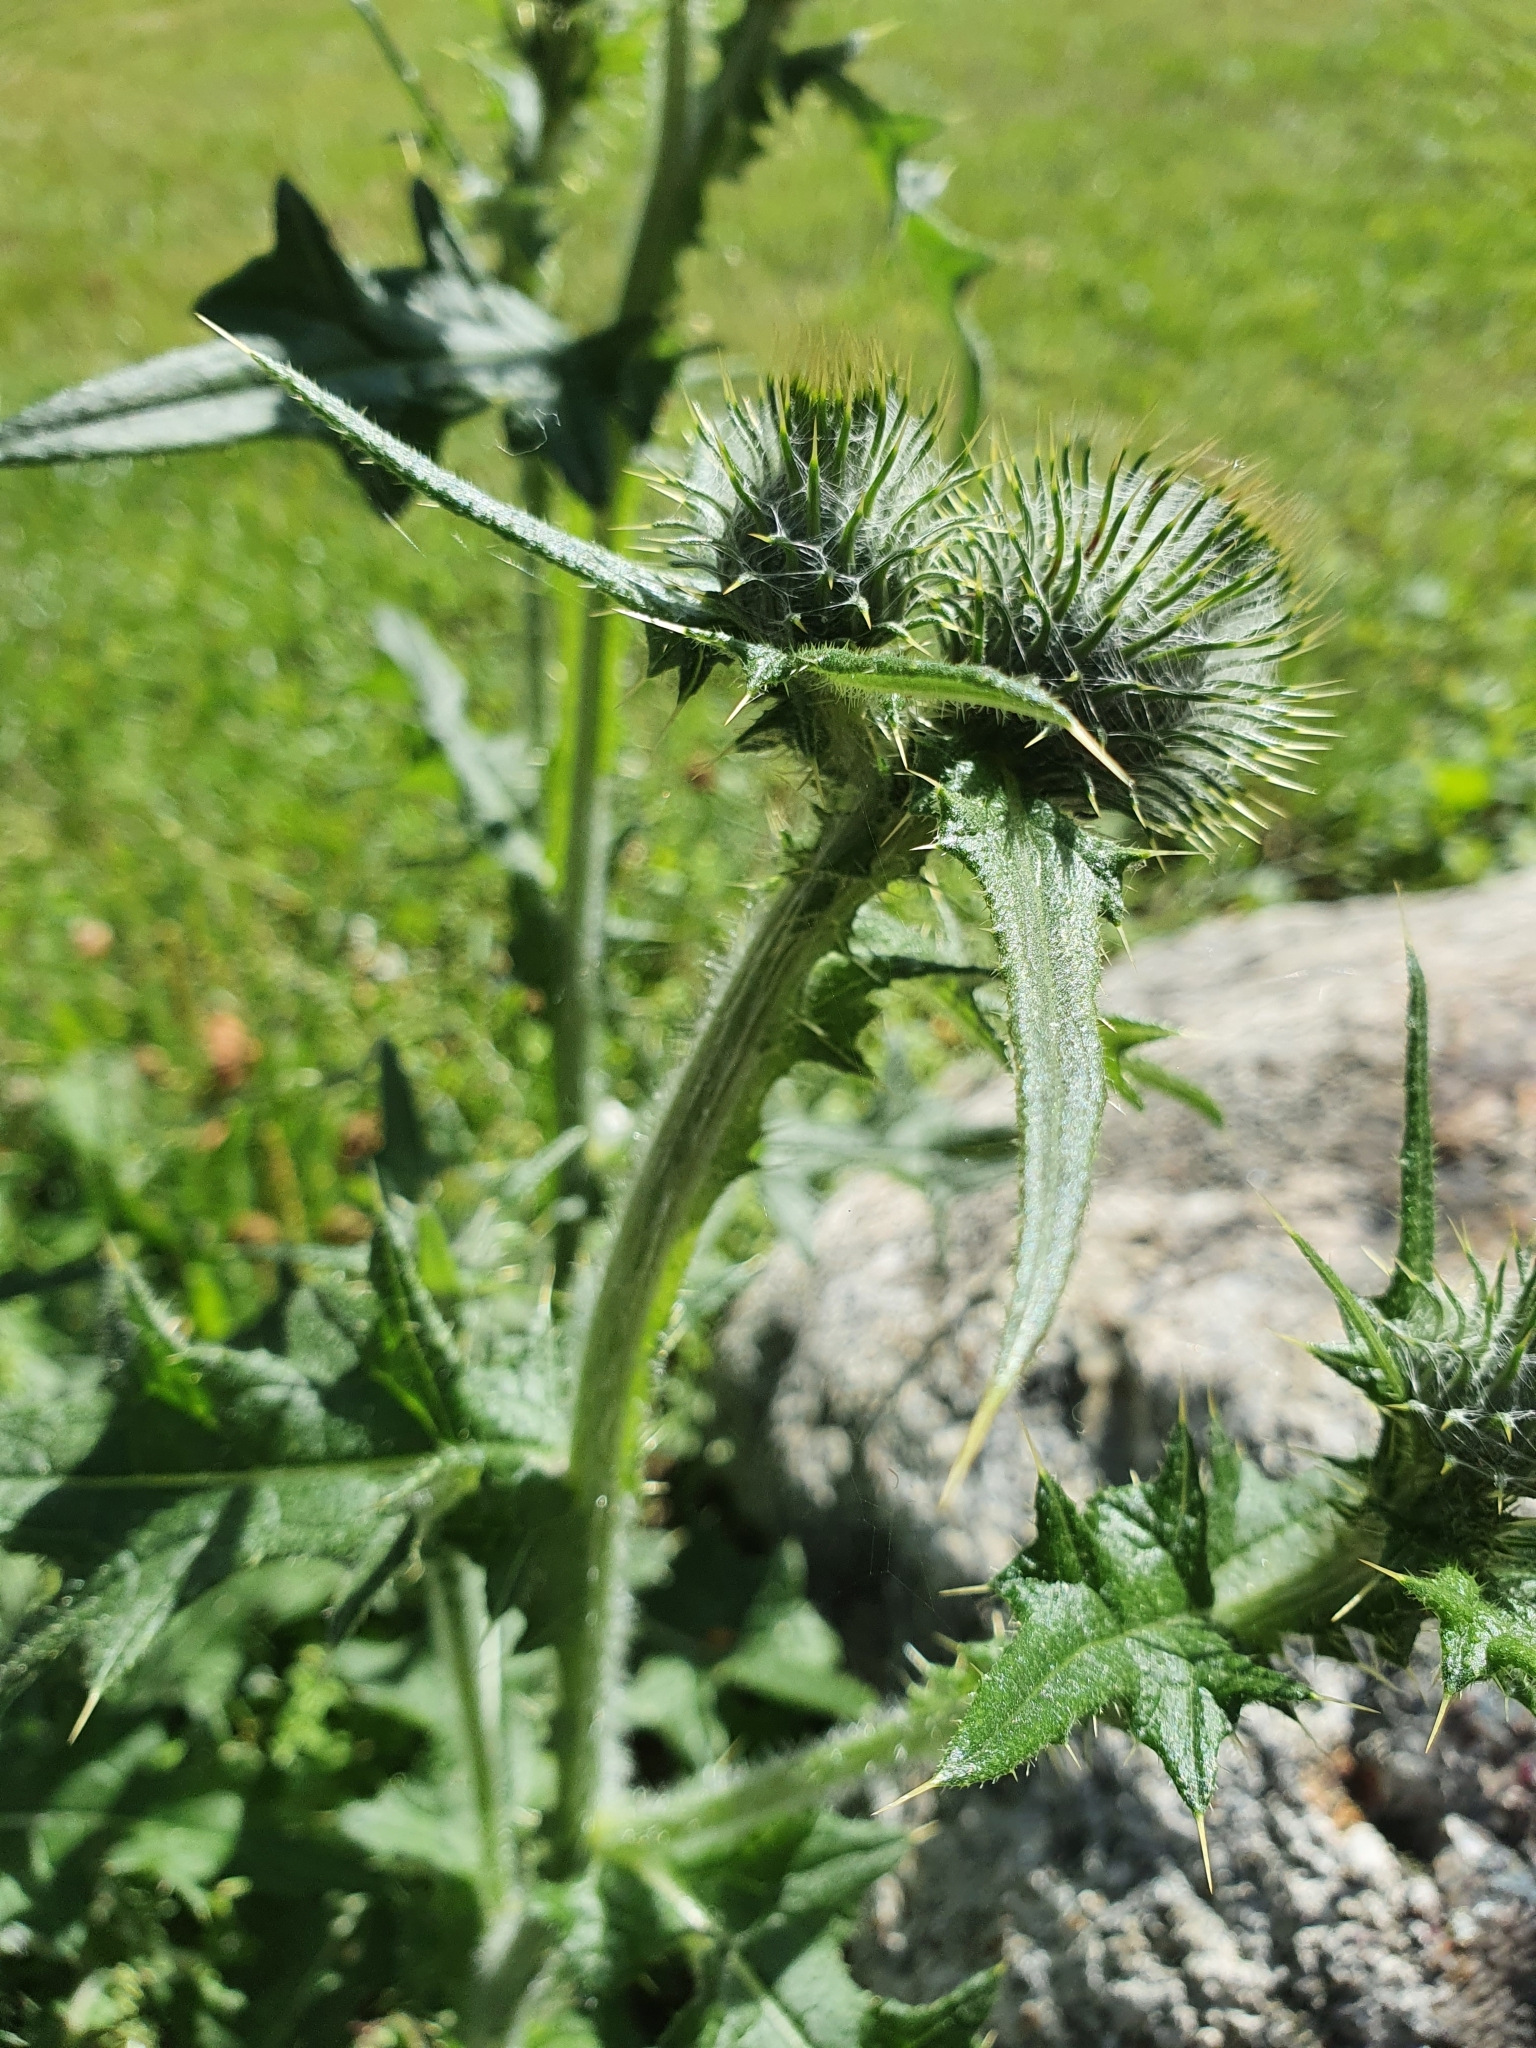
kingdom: Plantae
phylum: Tracheophyta
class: Magnoliopsida
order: Asterales
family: Asteraceae
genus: Cirsium
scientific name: Cirsium vulgare
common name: Bull thistle
